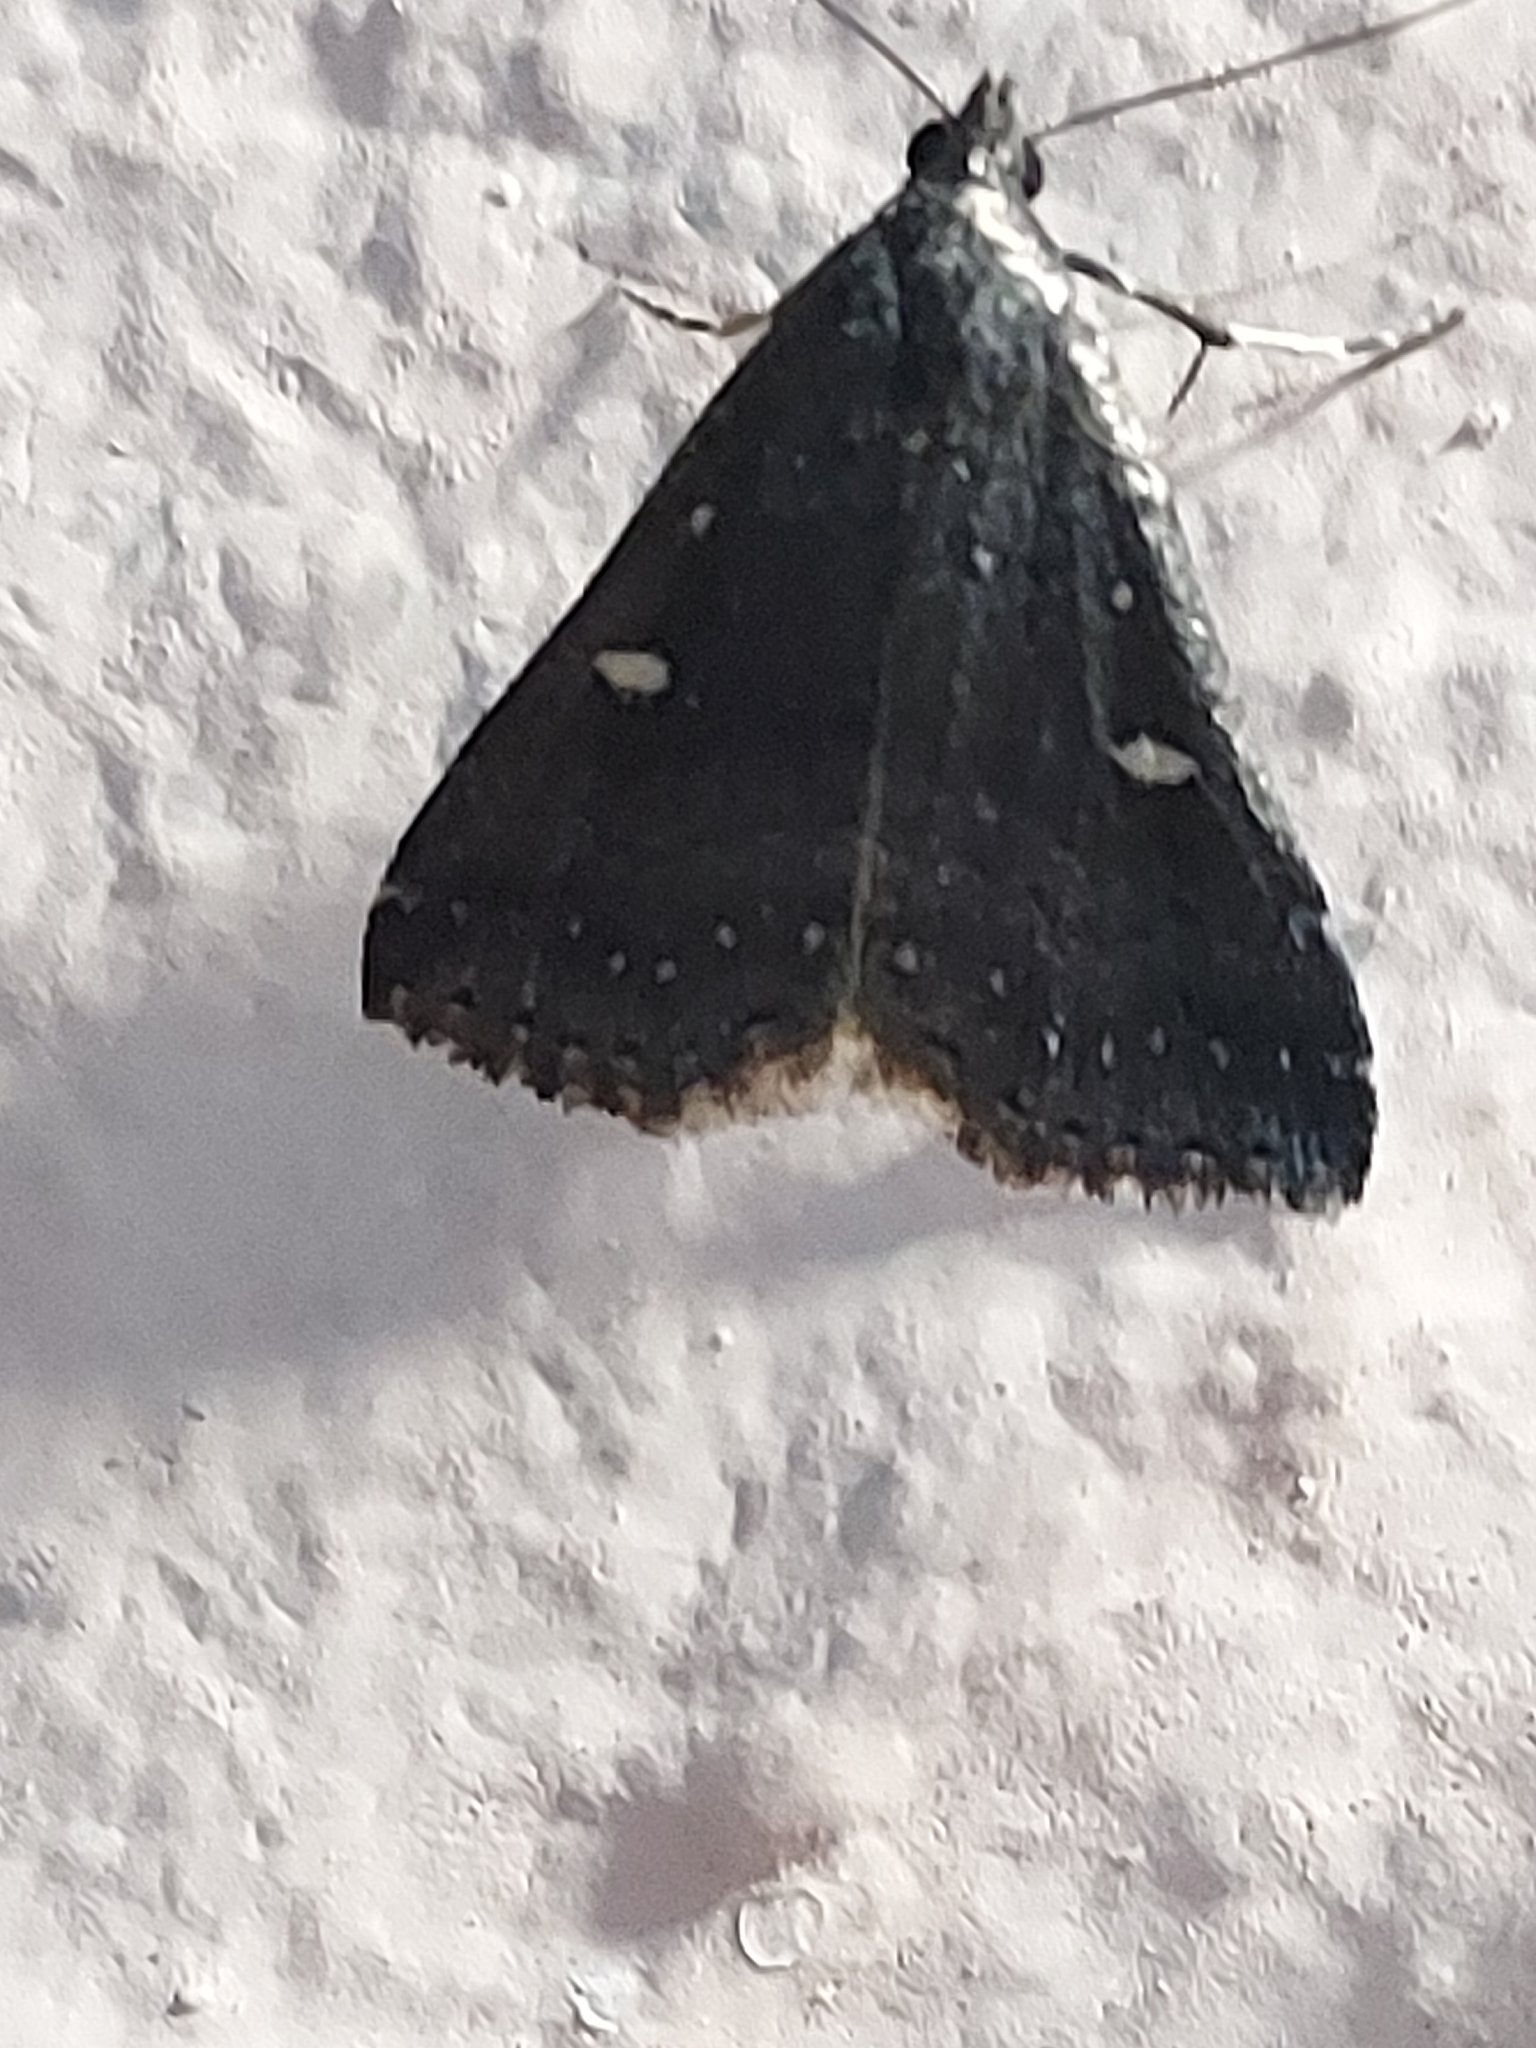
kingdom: Animalia
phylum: Arthropoda
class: Insecta
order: Lepidoptera
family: Erebidae
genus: Tetanolita
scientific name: Tetanolita mynesalis
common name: Smoky tetanolita moth
